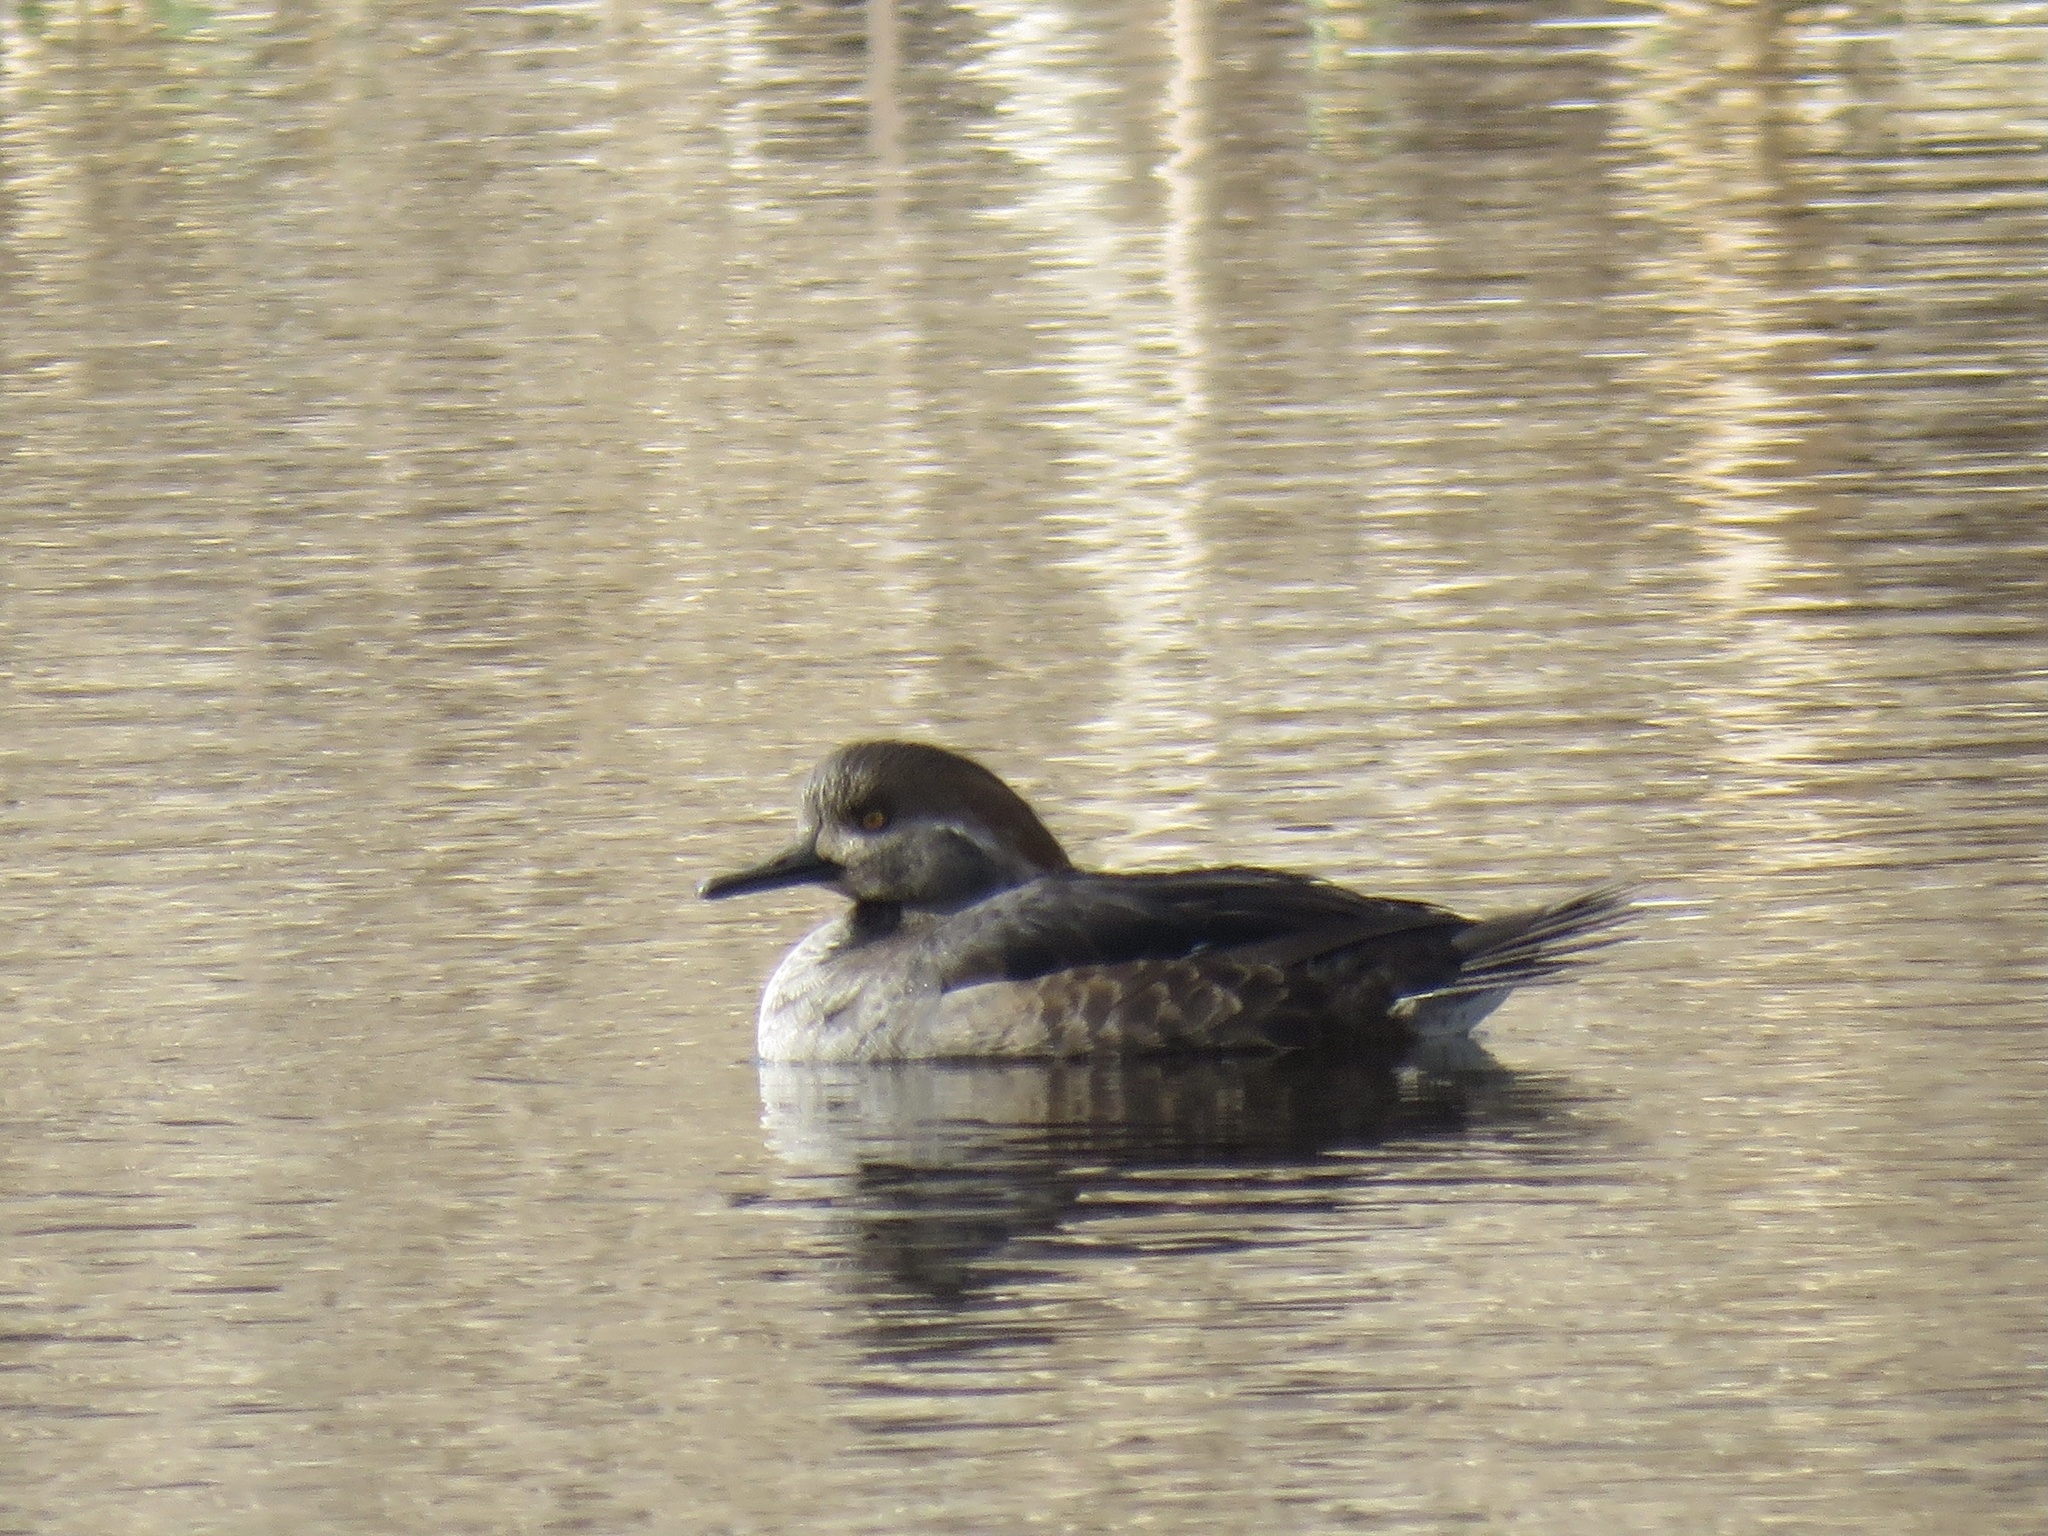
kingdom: Animalia
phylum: Chordata
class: Aves
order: Anseriformes
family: Anatidae
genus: Lophodytes
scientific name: Lophodytes cucullatus
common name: Hooded merganser
